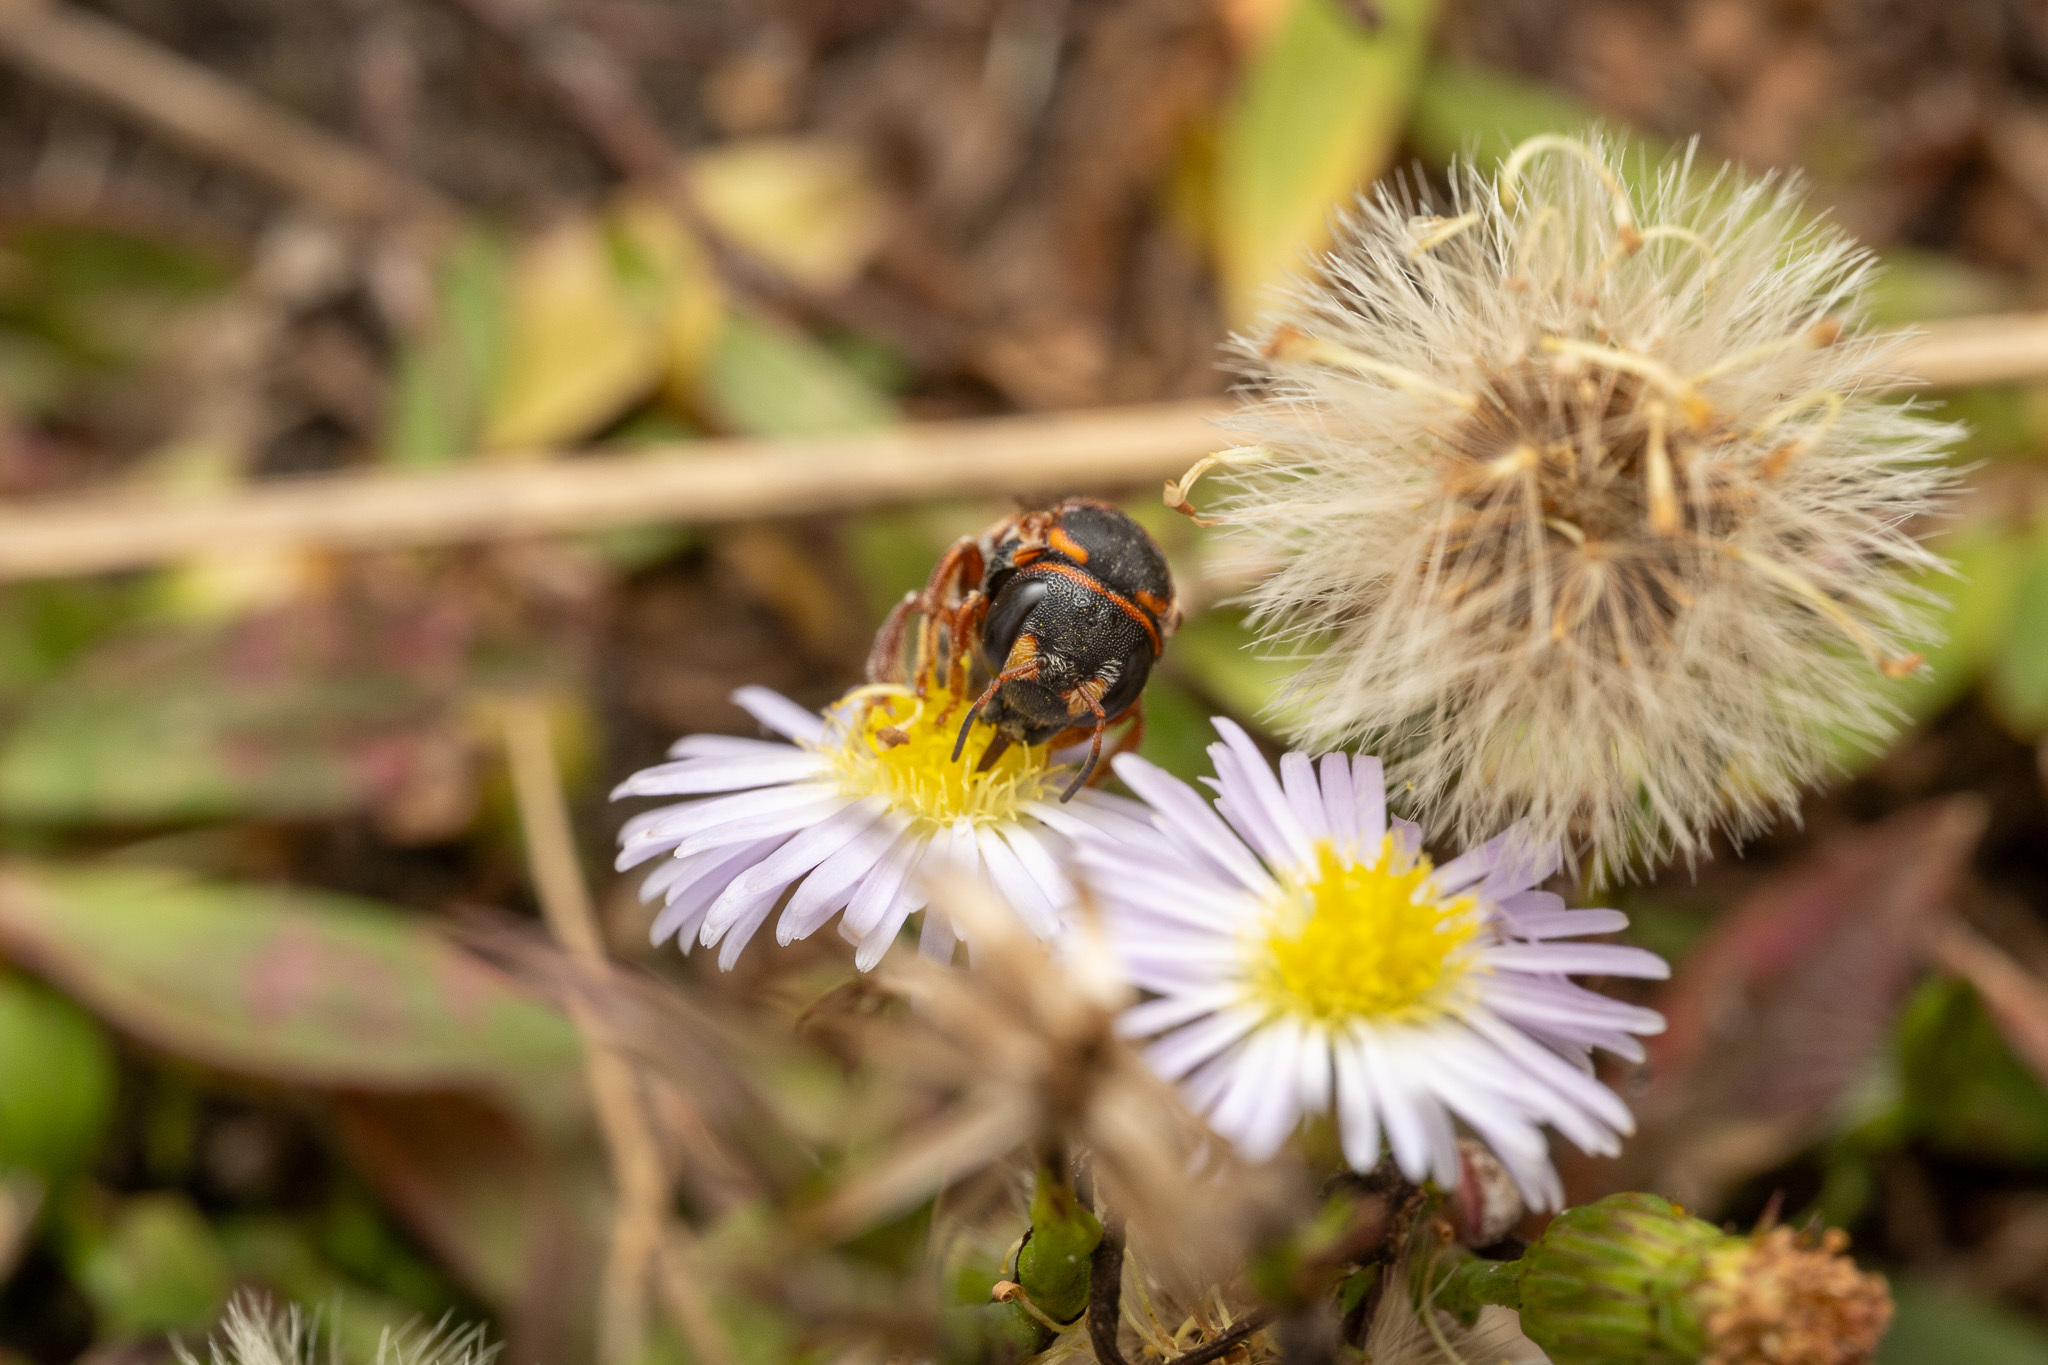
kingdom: Animalia
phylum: Arthropoda
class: Insecta
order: Hymenoptera
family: Megachilidae
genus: Anthidiellum
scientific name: Anthidiellum perplexum
